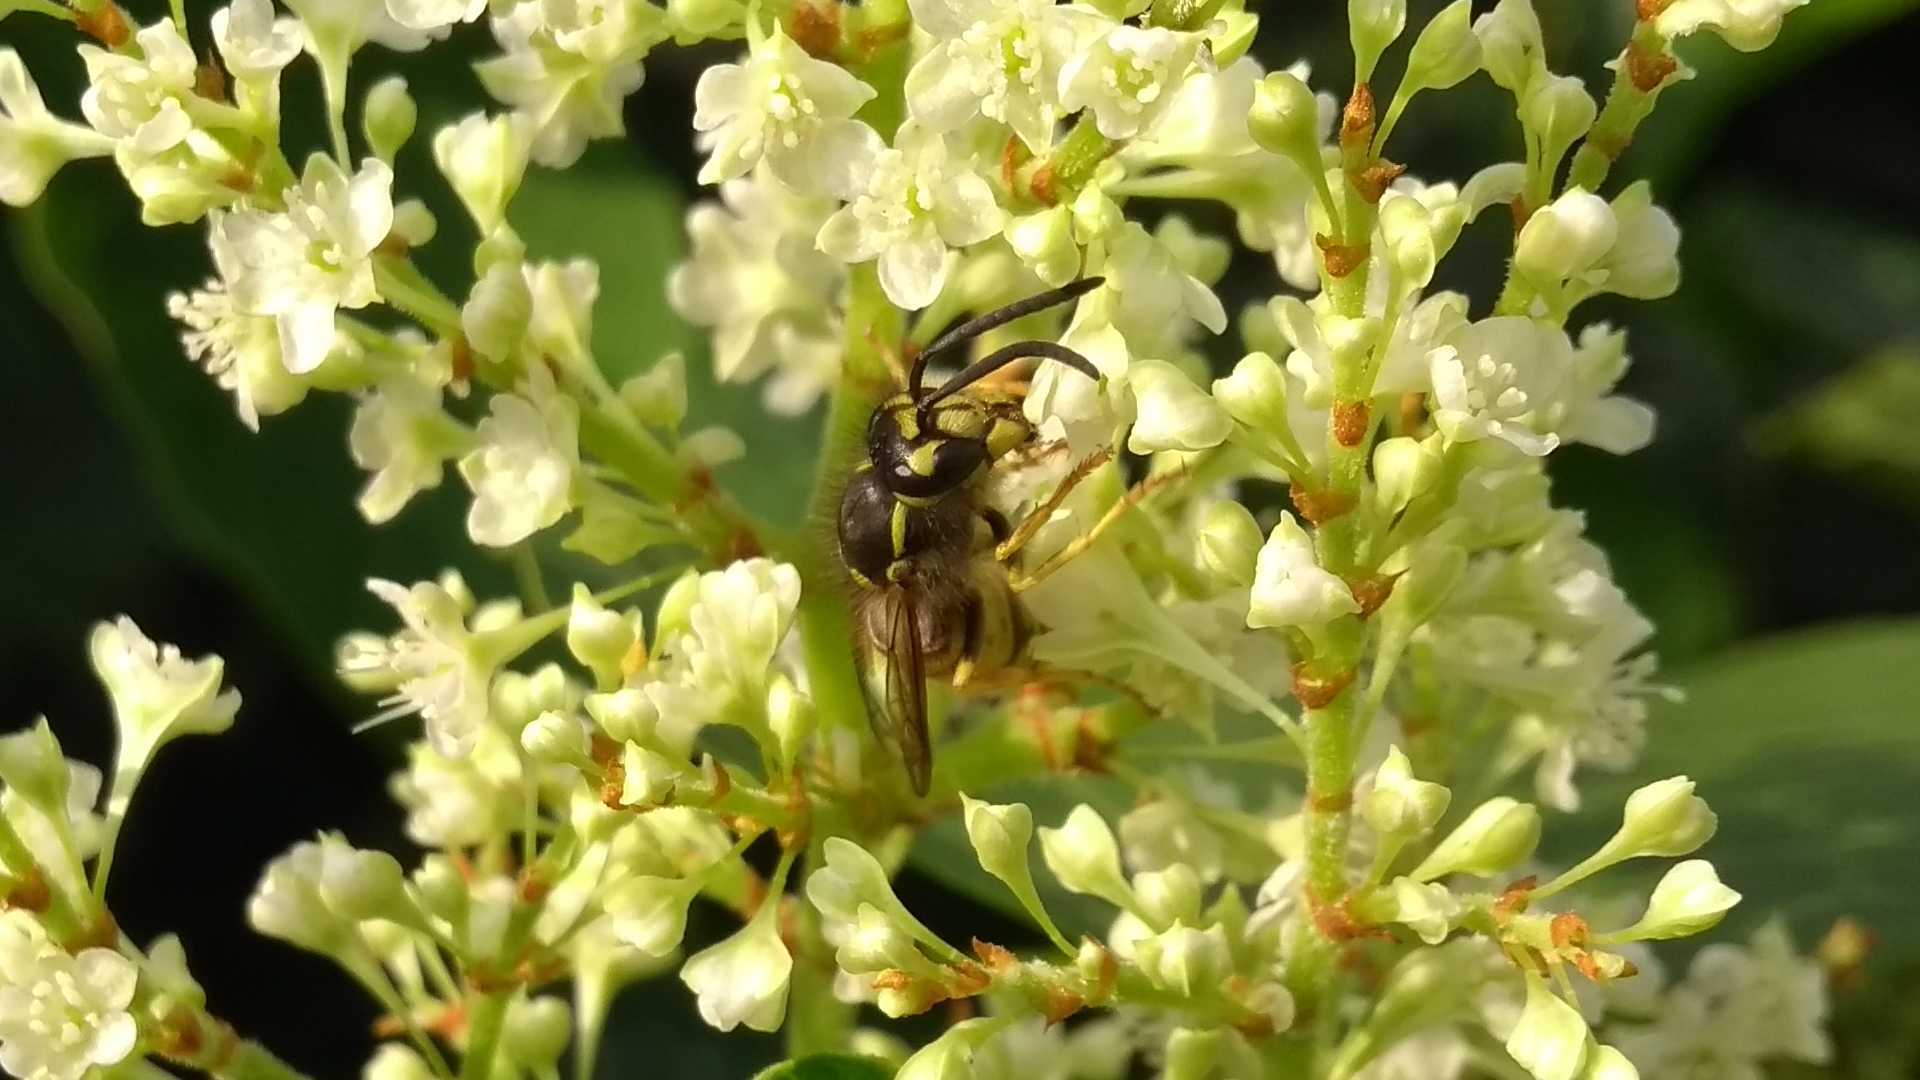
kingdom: Animalia
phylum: Arthropoda
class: Insecta
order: Hymenoptera
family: Vespidae
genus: Vespula
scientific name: Vespula germanica
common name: German wasp
